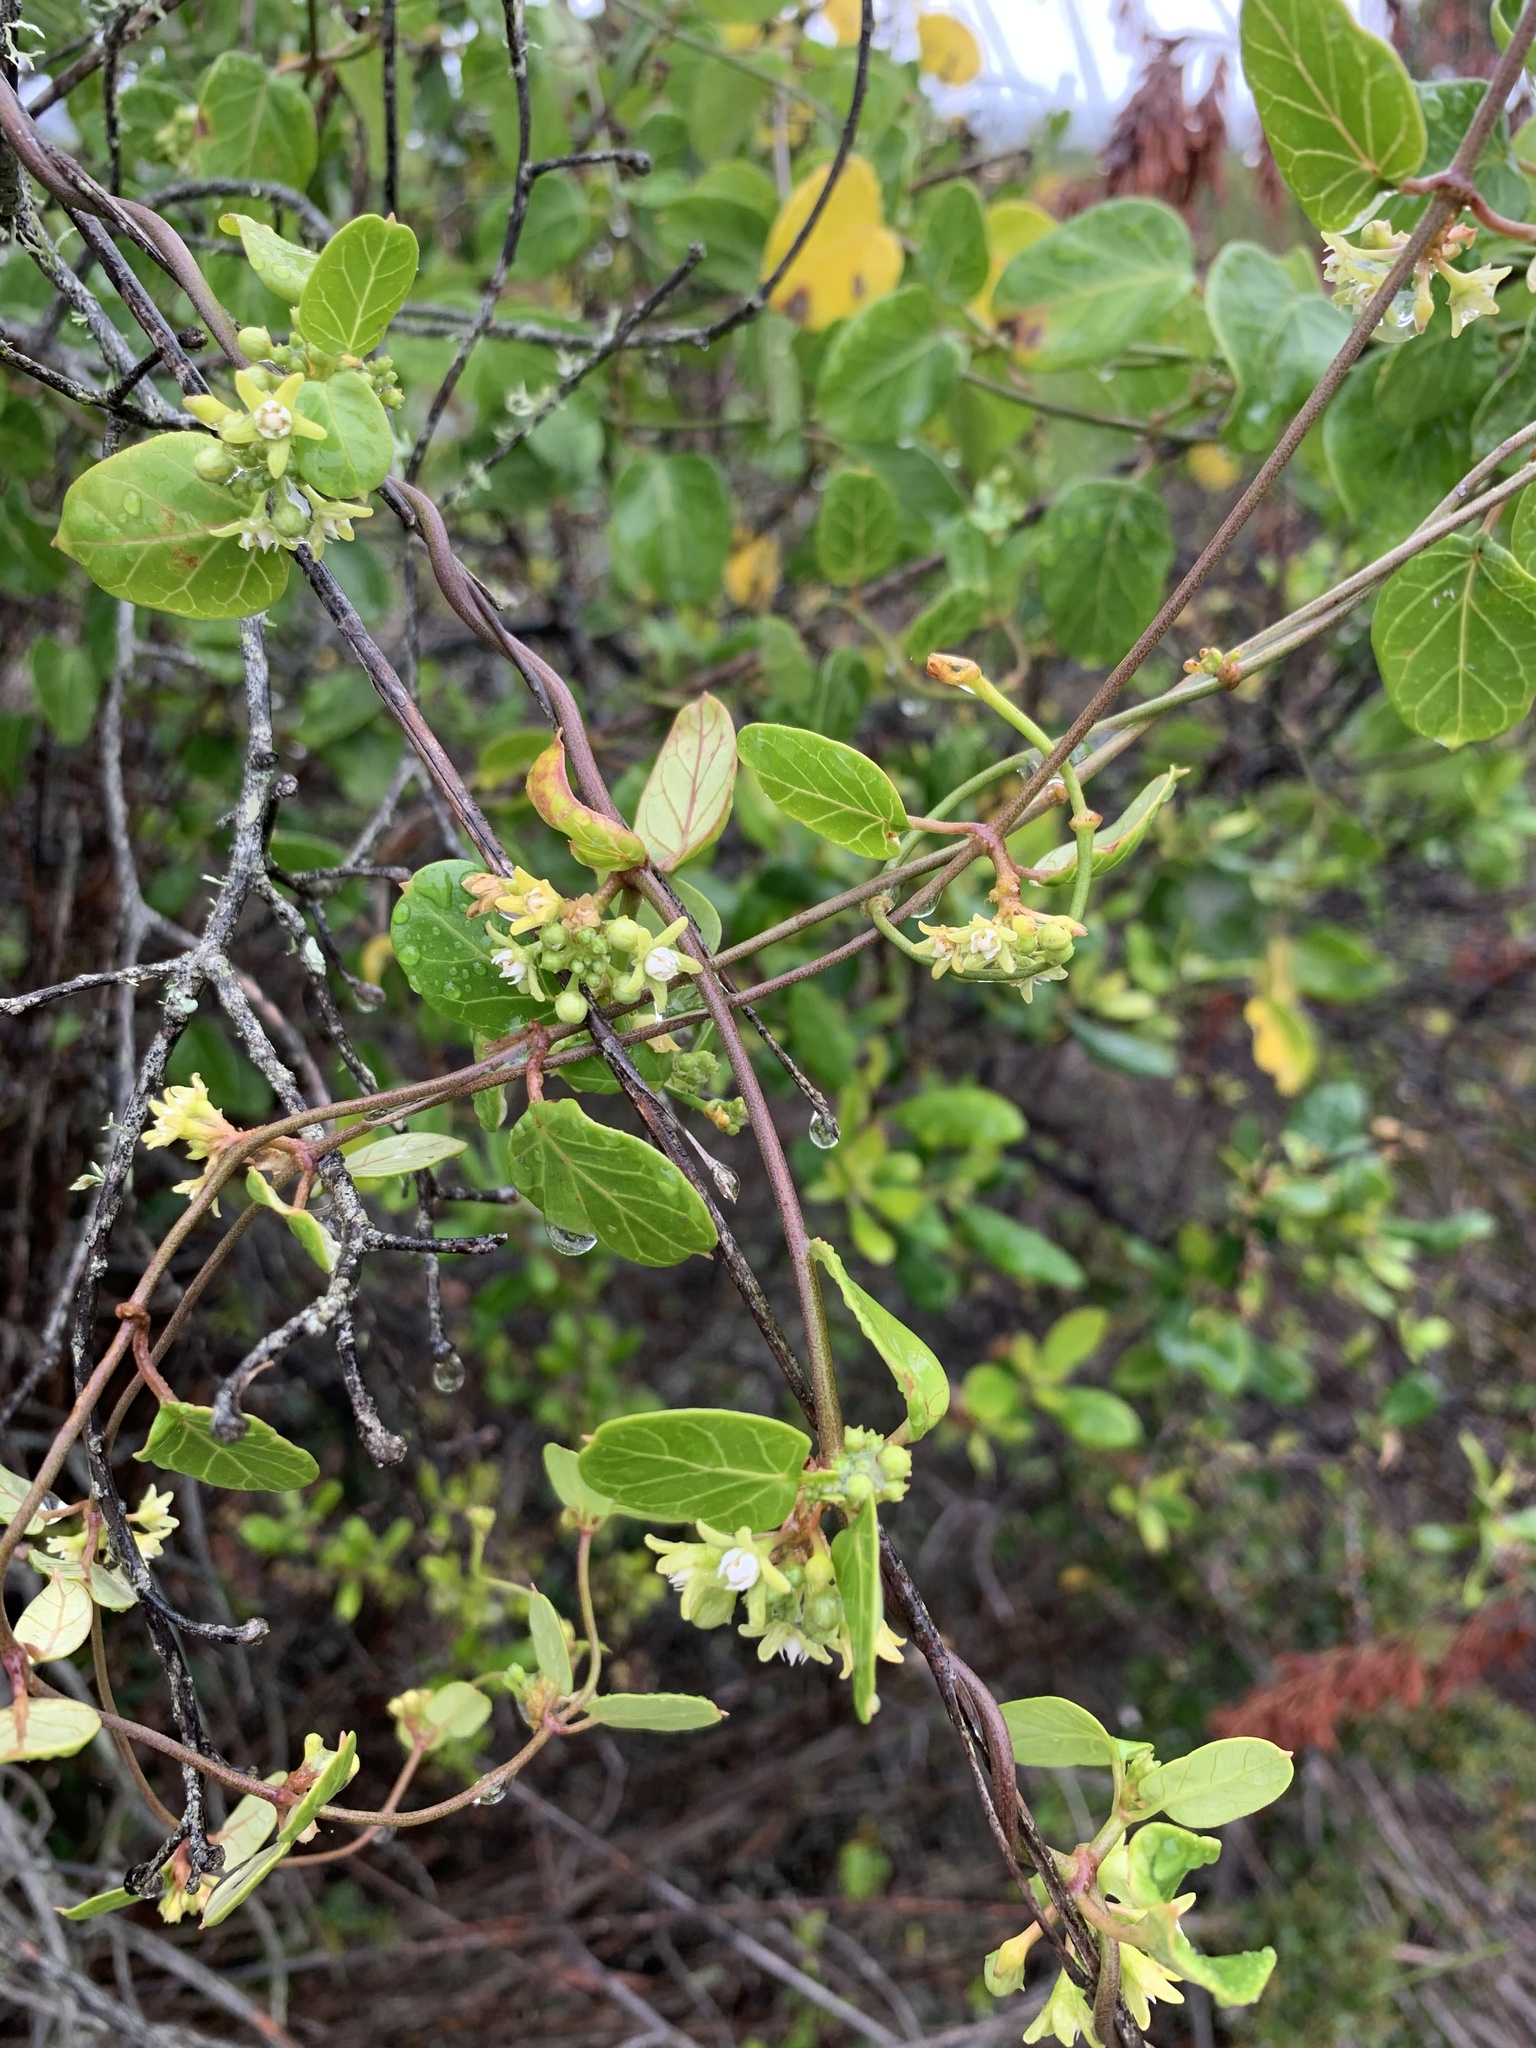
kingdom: Plantae
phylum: Tracheophyta
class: Magnoliopsida
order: Gentianales
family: Apocynaceae
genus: Cynanchum
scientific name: Cynanchum obtusifolium
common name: Monkey-rope
